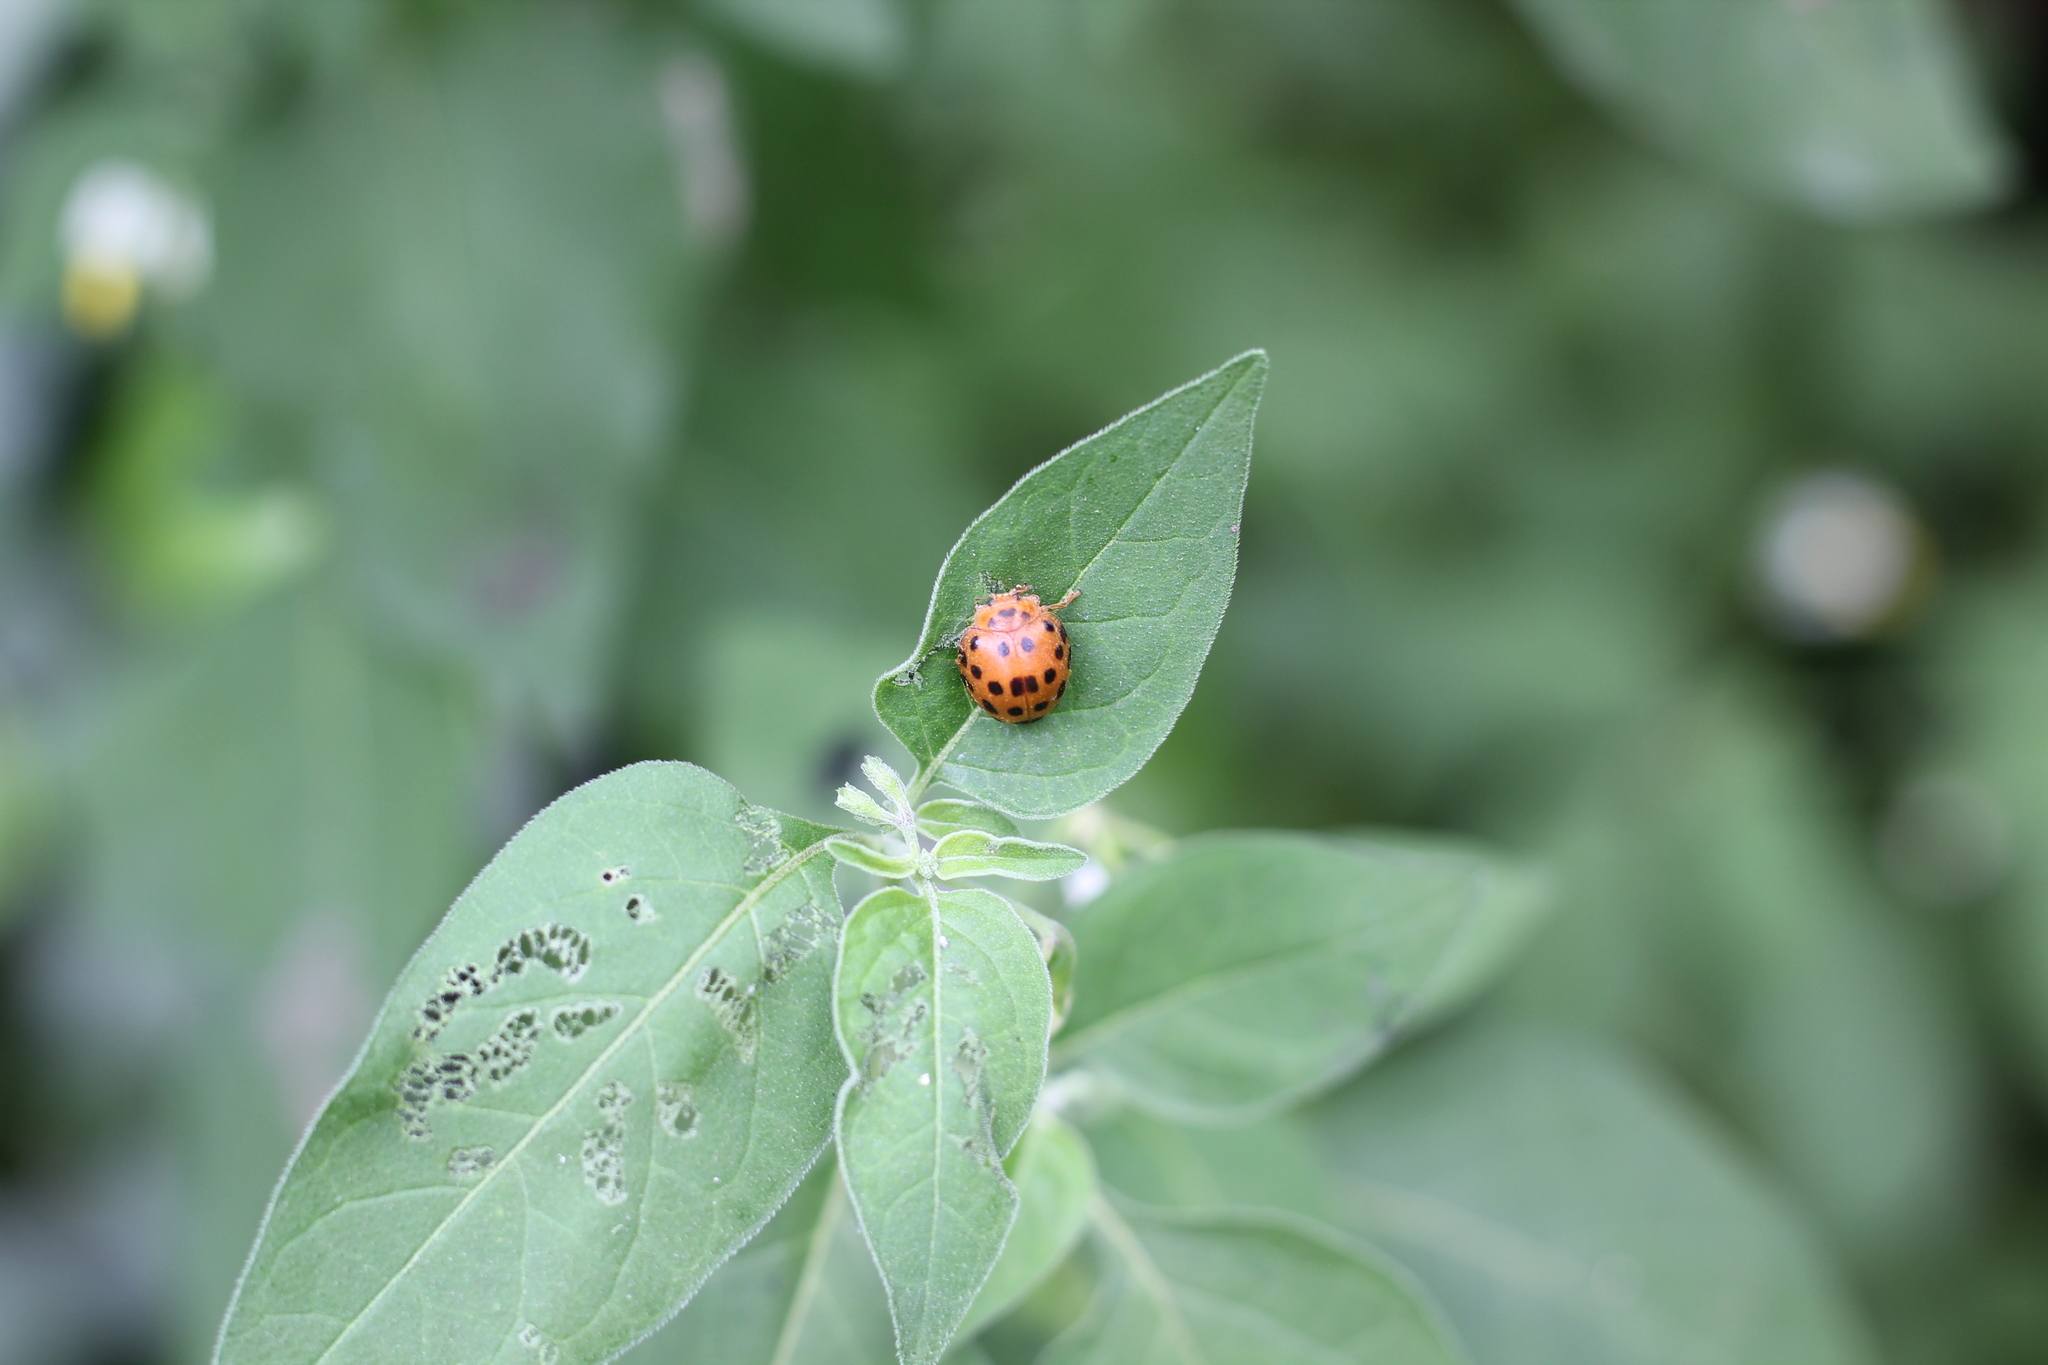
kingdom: Animalia
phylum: Arthropoda
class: Insecta
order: Coleoptera
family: Coccinellidae
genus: Henosepilachna
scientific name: Henosepilachna vigintioctopunctata
